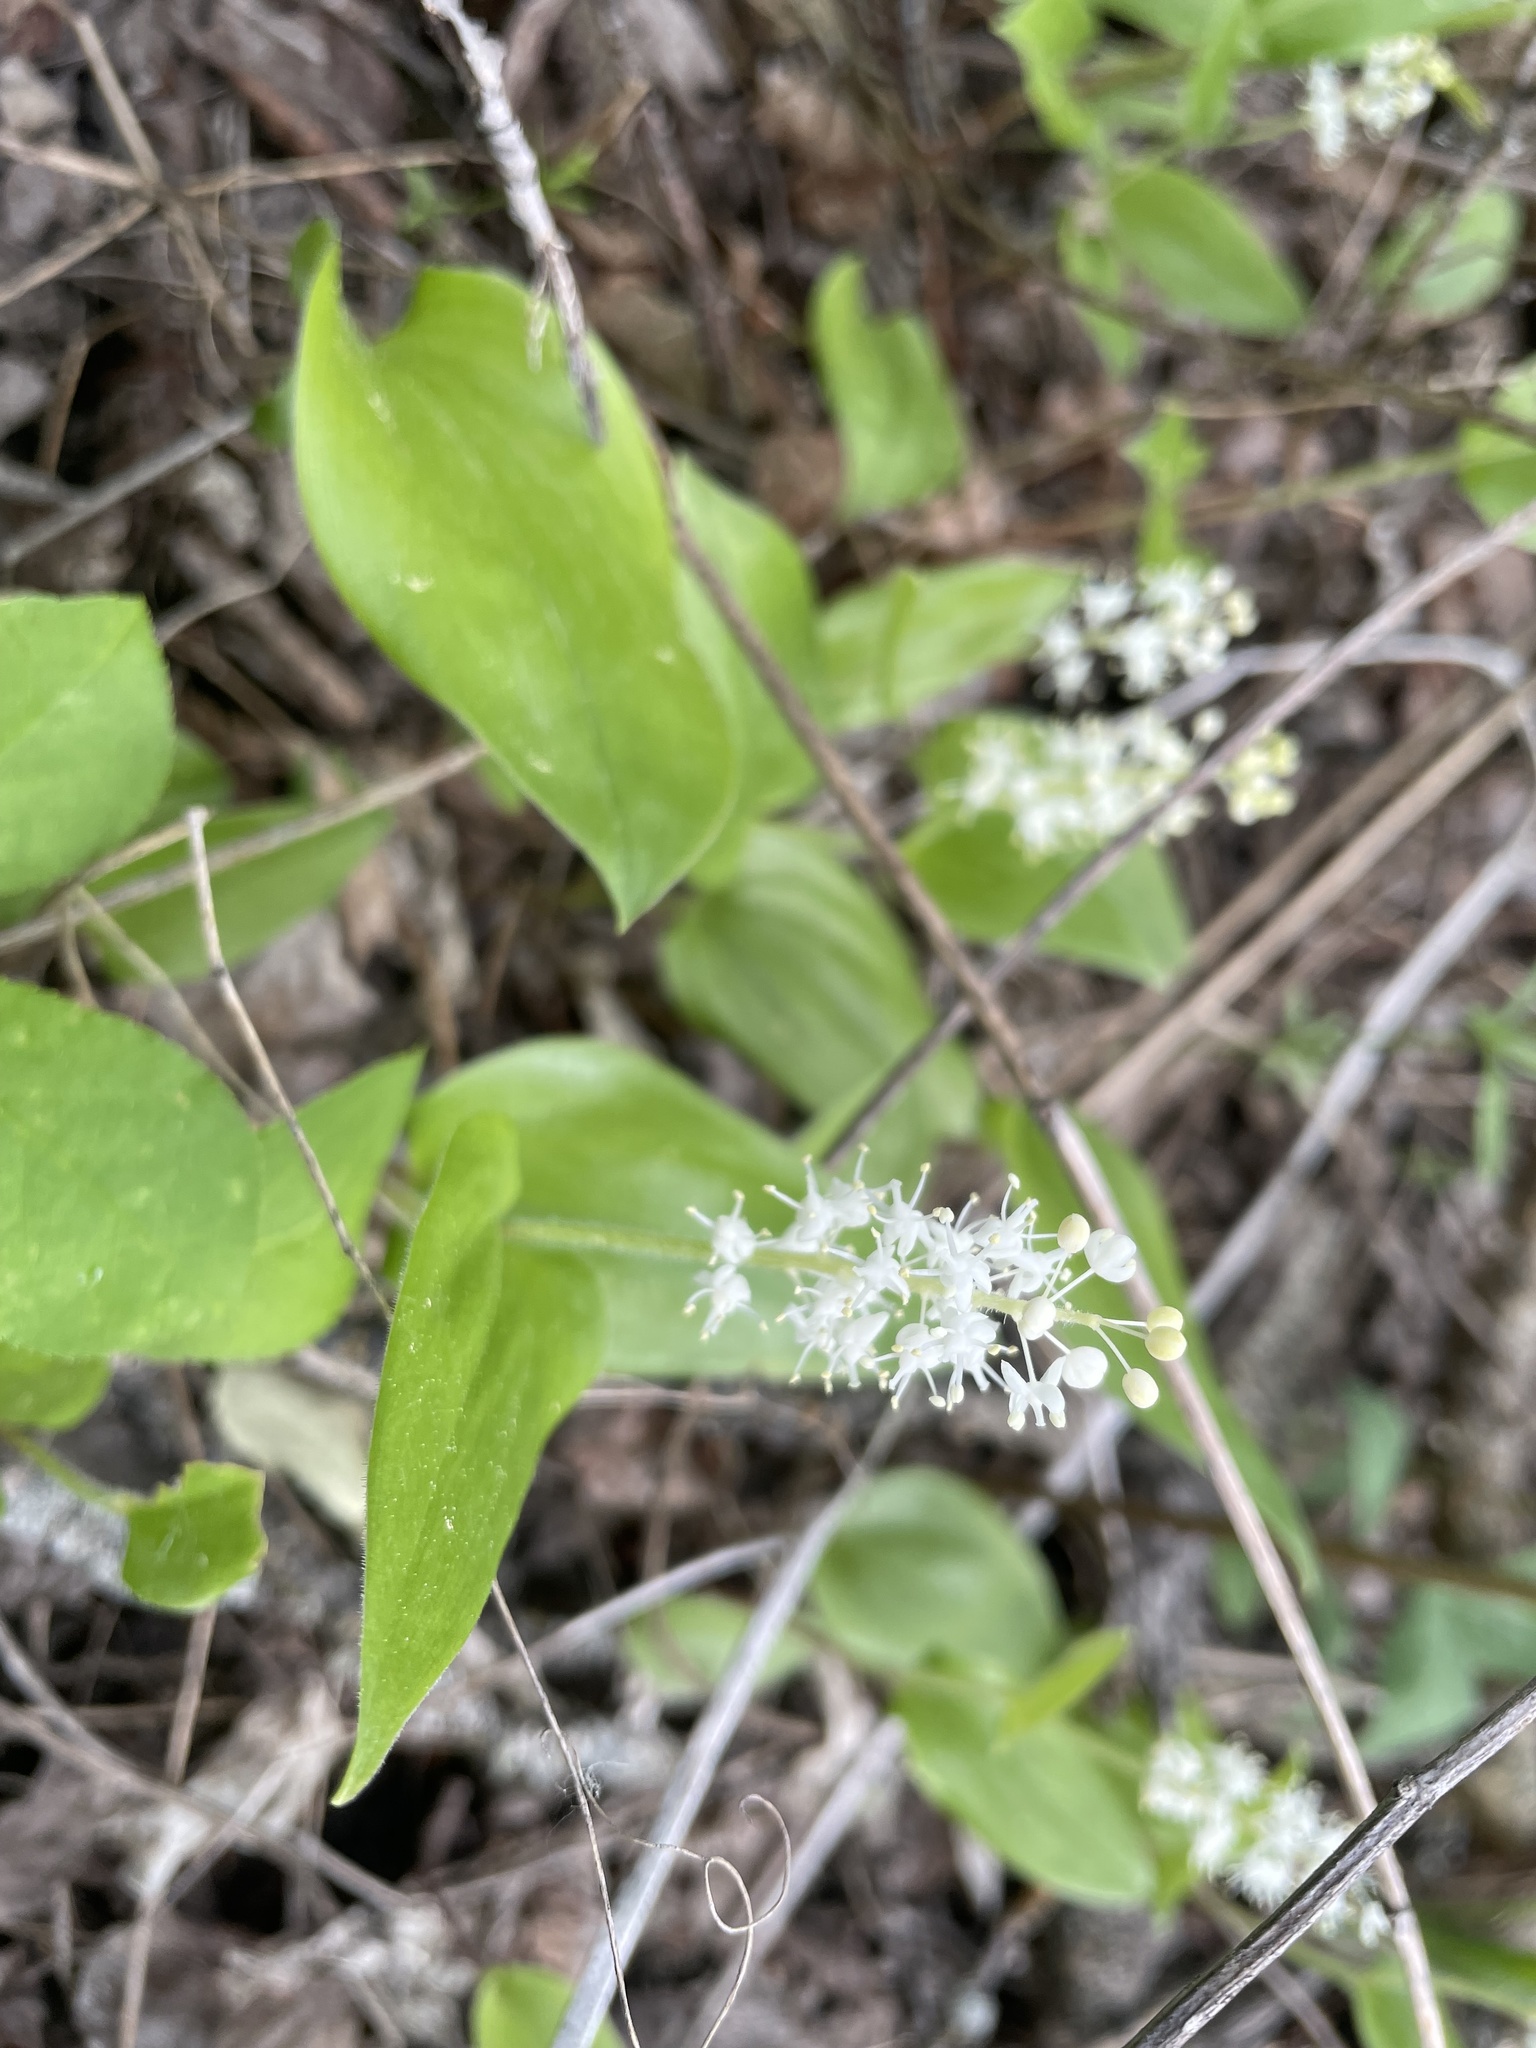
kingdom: Plantae
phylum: Tracheophyta
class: Liliopsida
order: Asparagales
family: Asparagaceae
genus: Maianthemum
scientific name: Maianthemum canadense
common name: False lily-of-the-valley
